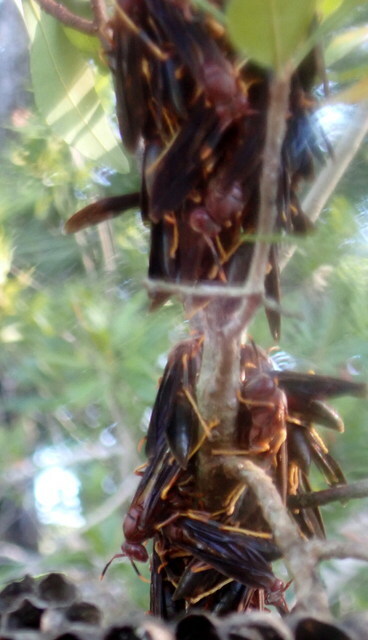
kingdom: Animalia
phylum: Arthropoda
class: Insecta
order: Hymenoptera
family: Eumenidae
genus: Polistes
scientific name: Polistes annularis
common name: Ringed paper wasp
